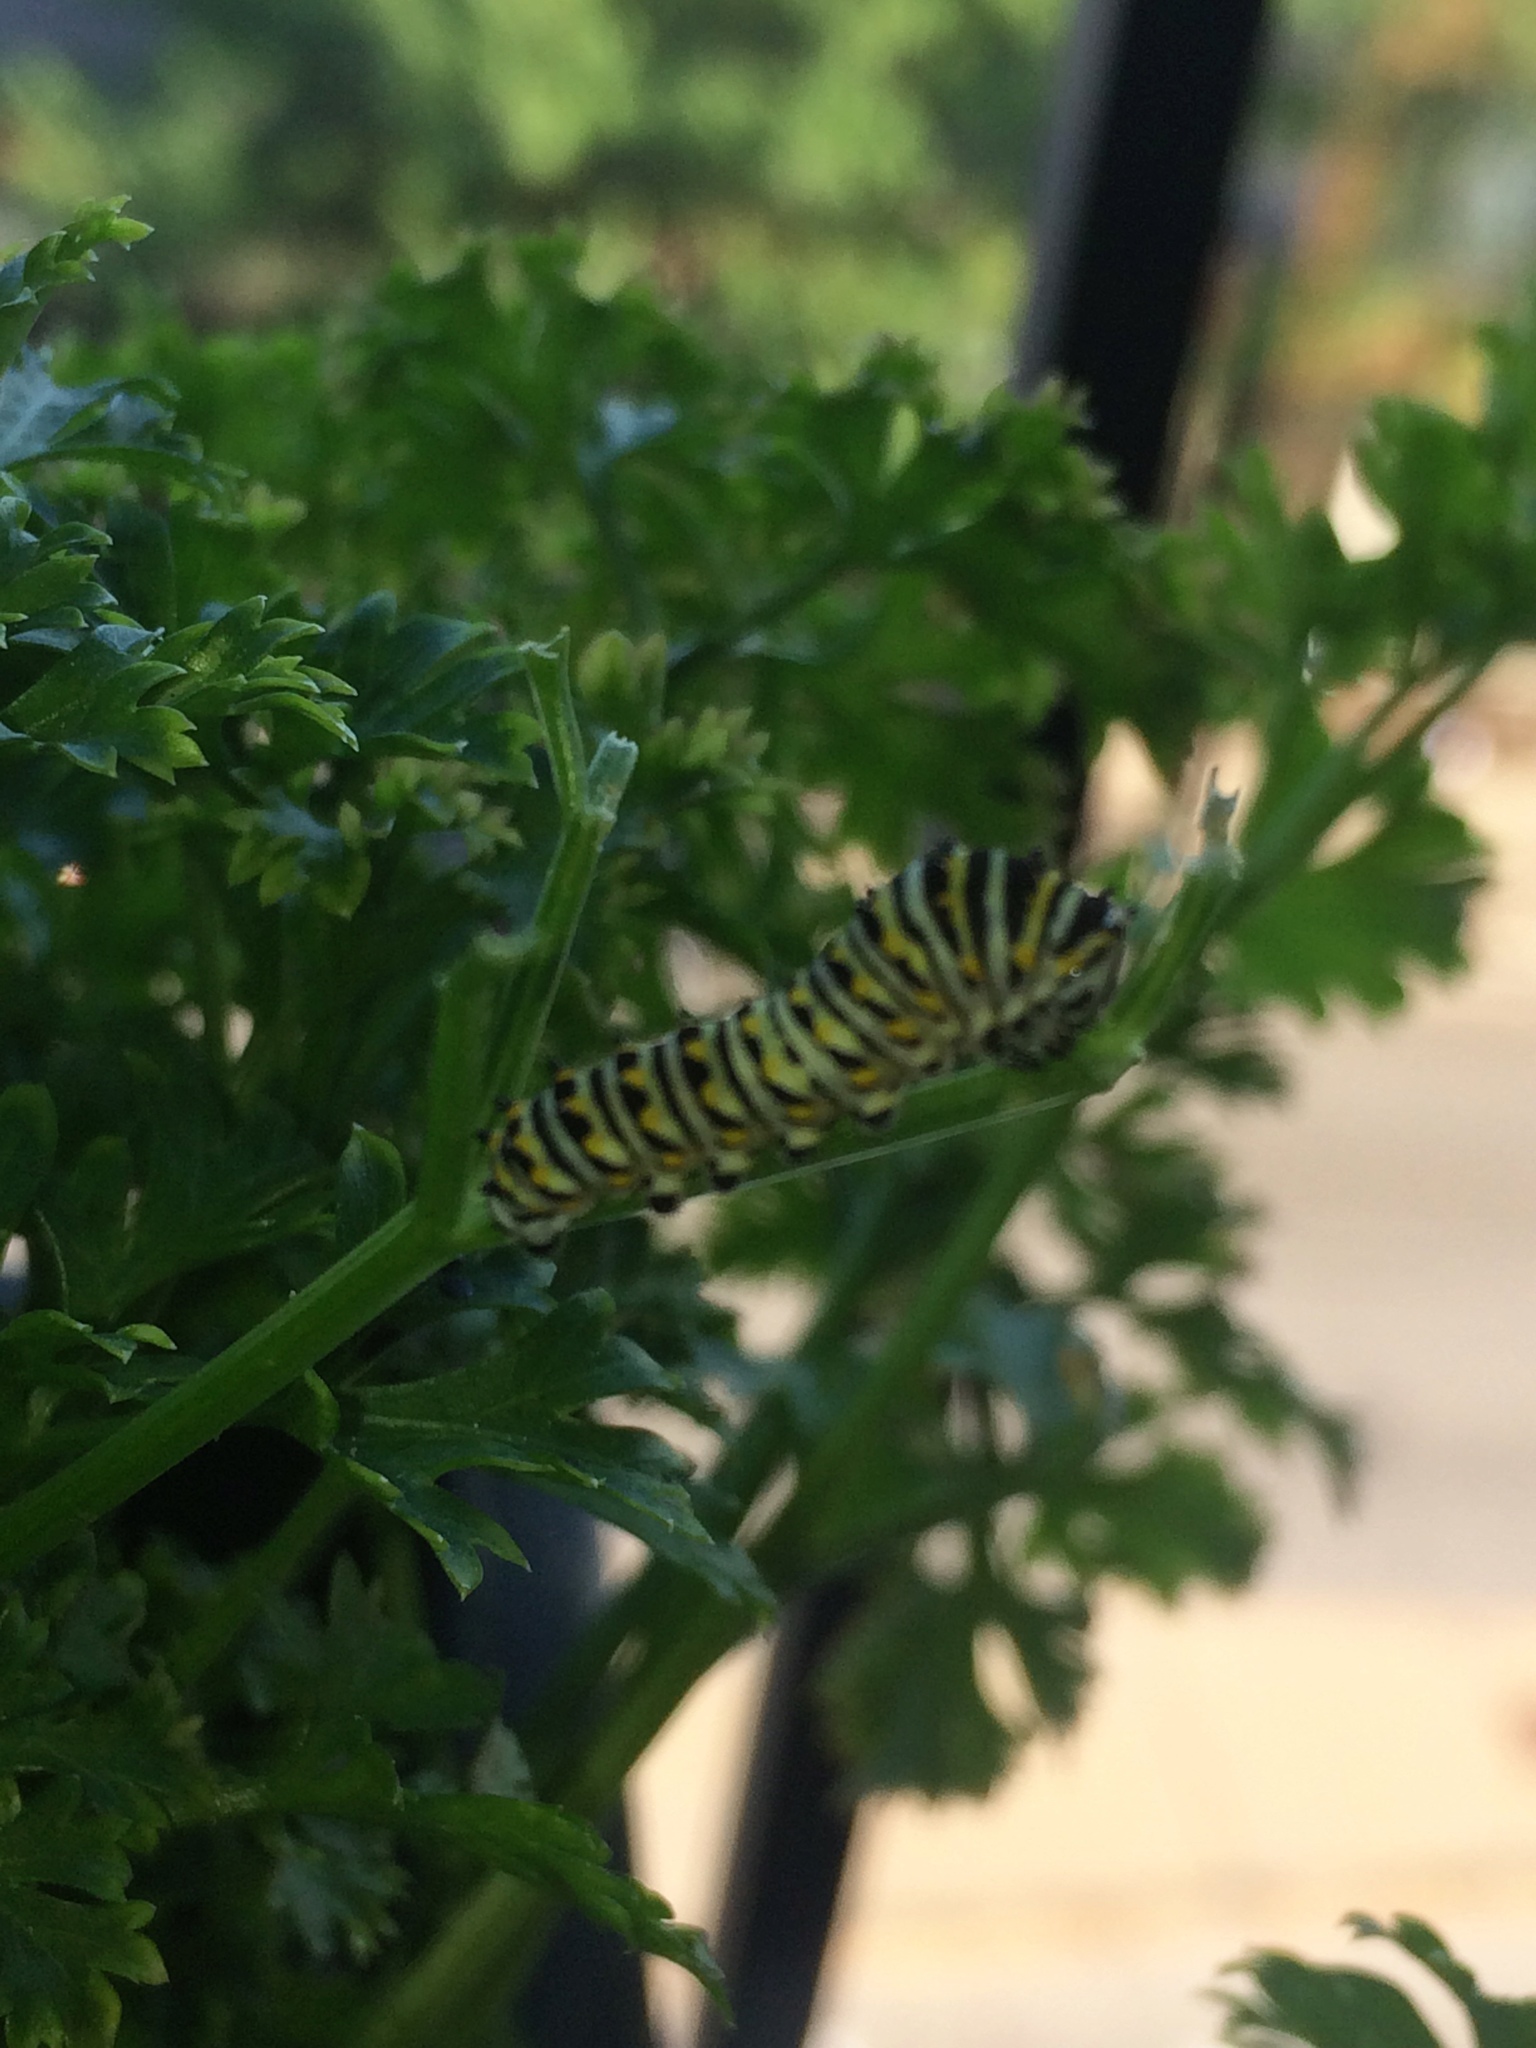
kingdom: Animalia
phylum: Arthropoda
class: Insecta
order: Lepidoptera
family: Papilionidae
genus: Papilio
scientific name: Papilio polyxenes
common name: Black swallowtail
